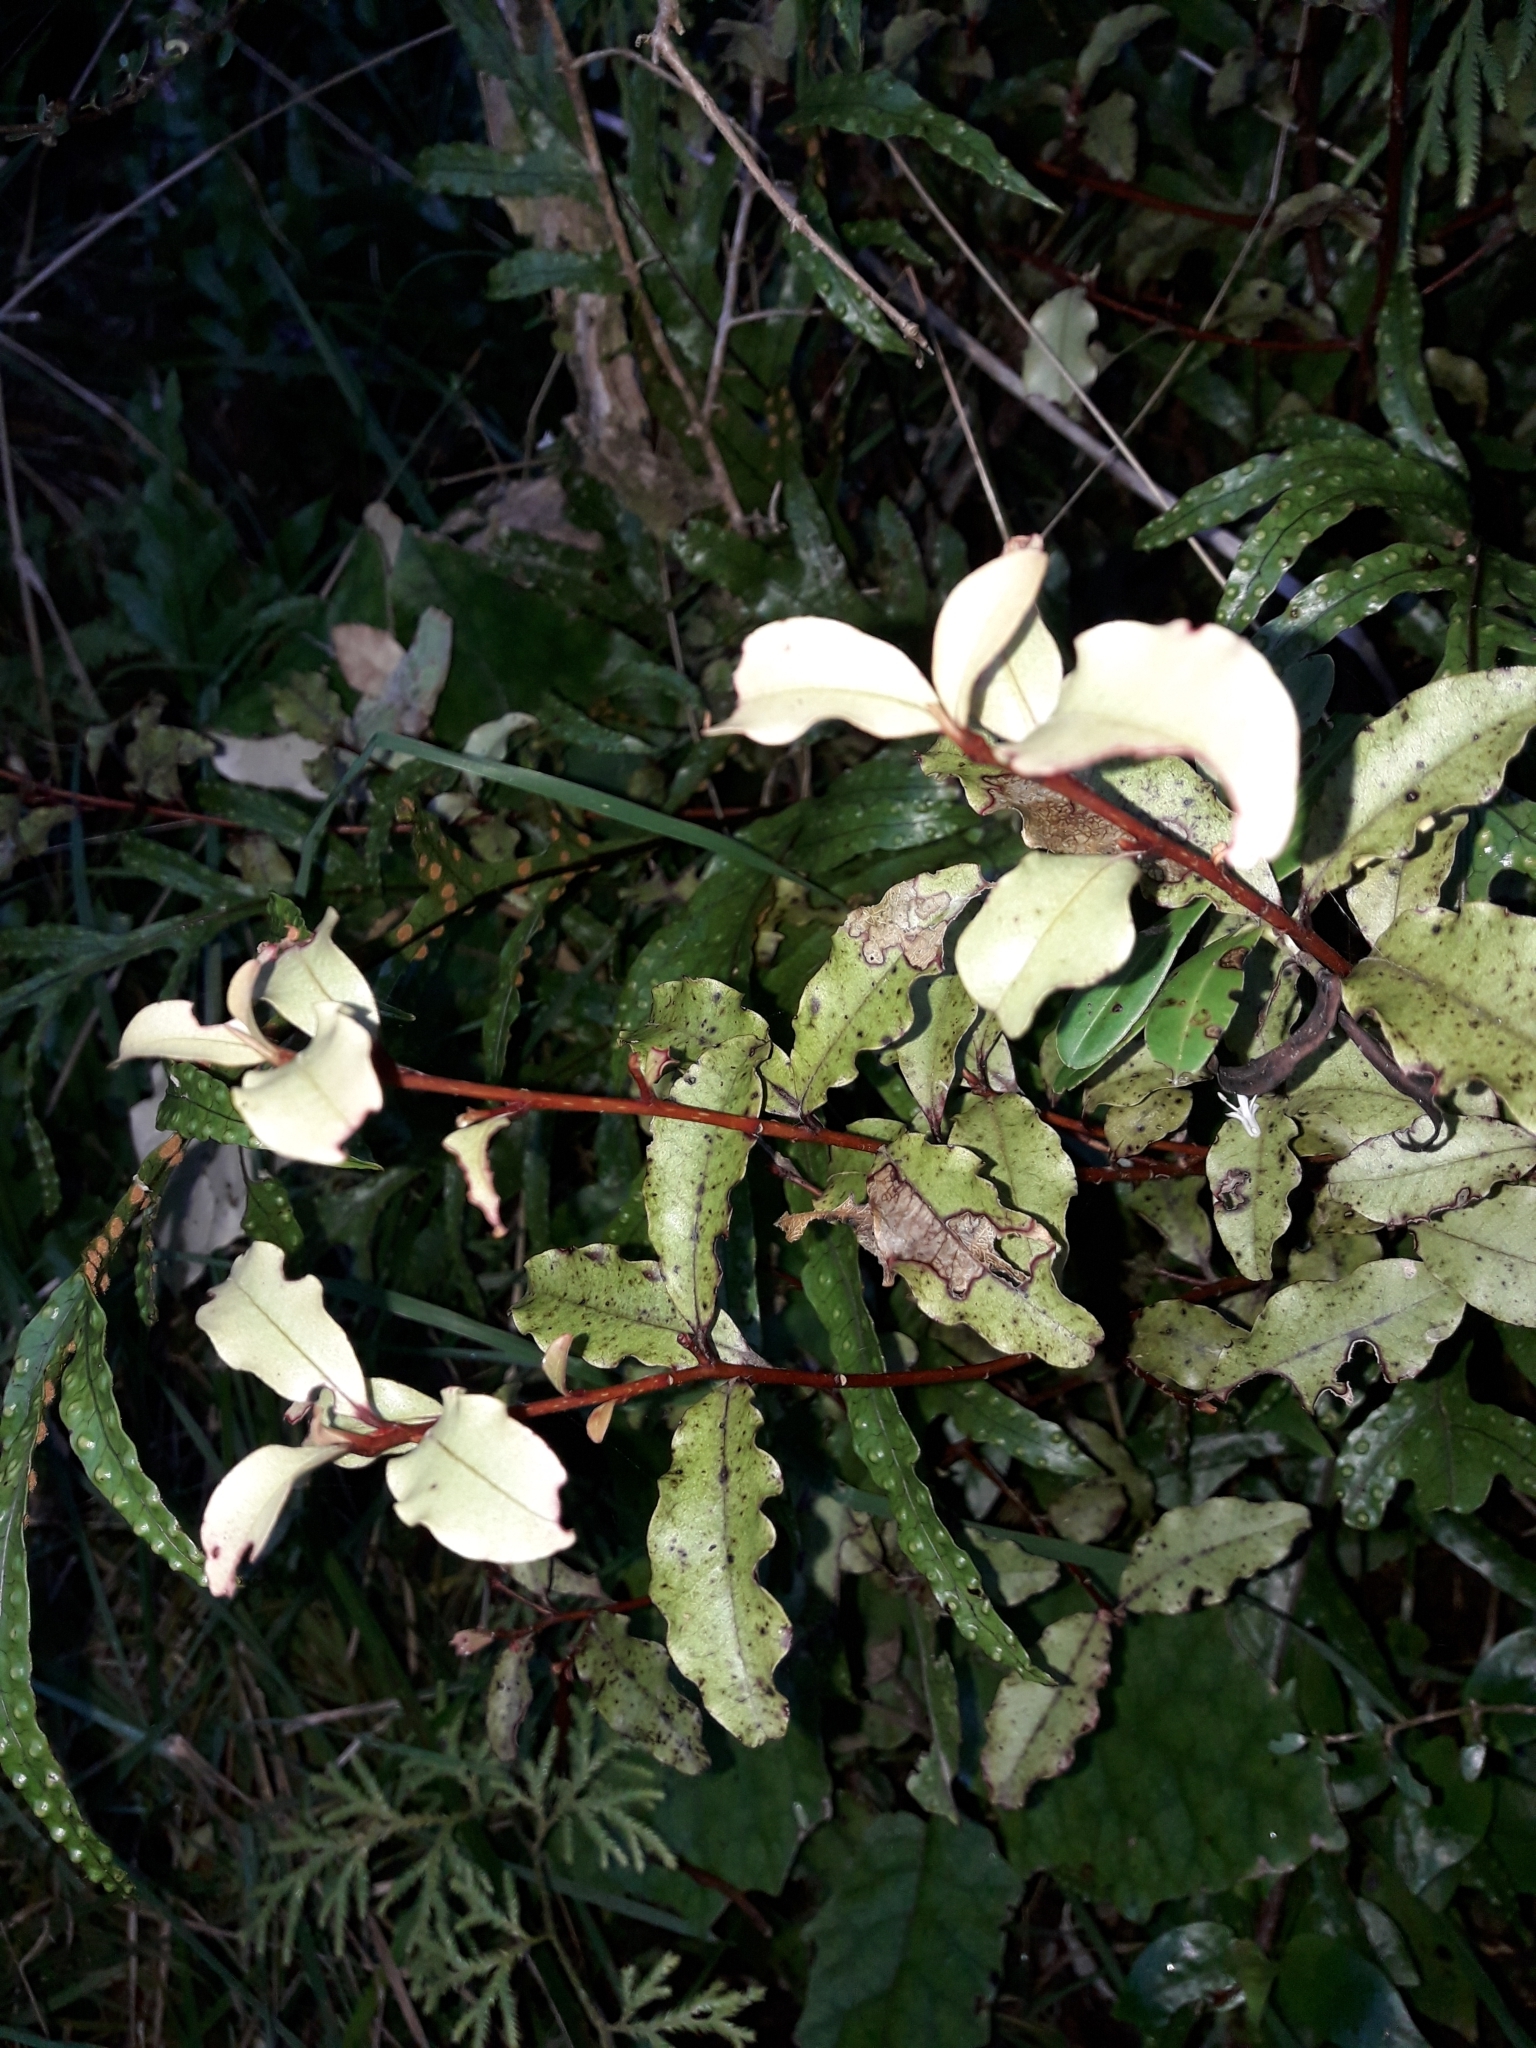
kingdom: Plantae
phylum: Tracheophyta
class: Magnoliopsida
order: Ericales
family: Primulaceae
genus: Myrsine
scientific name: Myrsine australis
